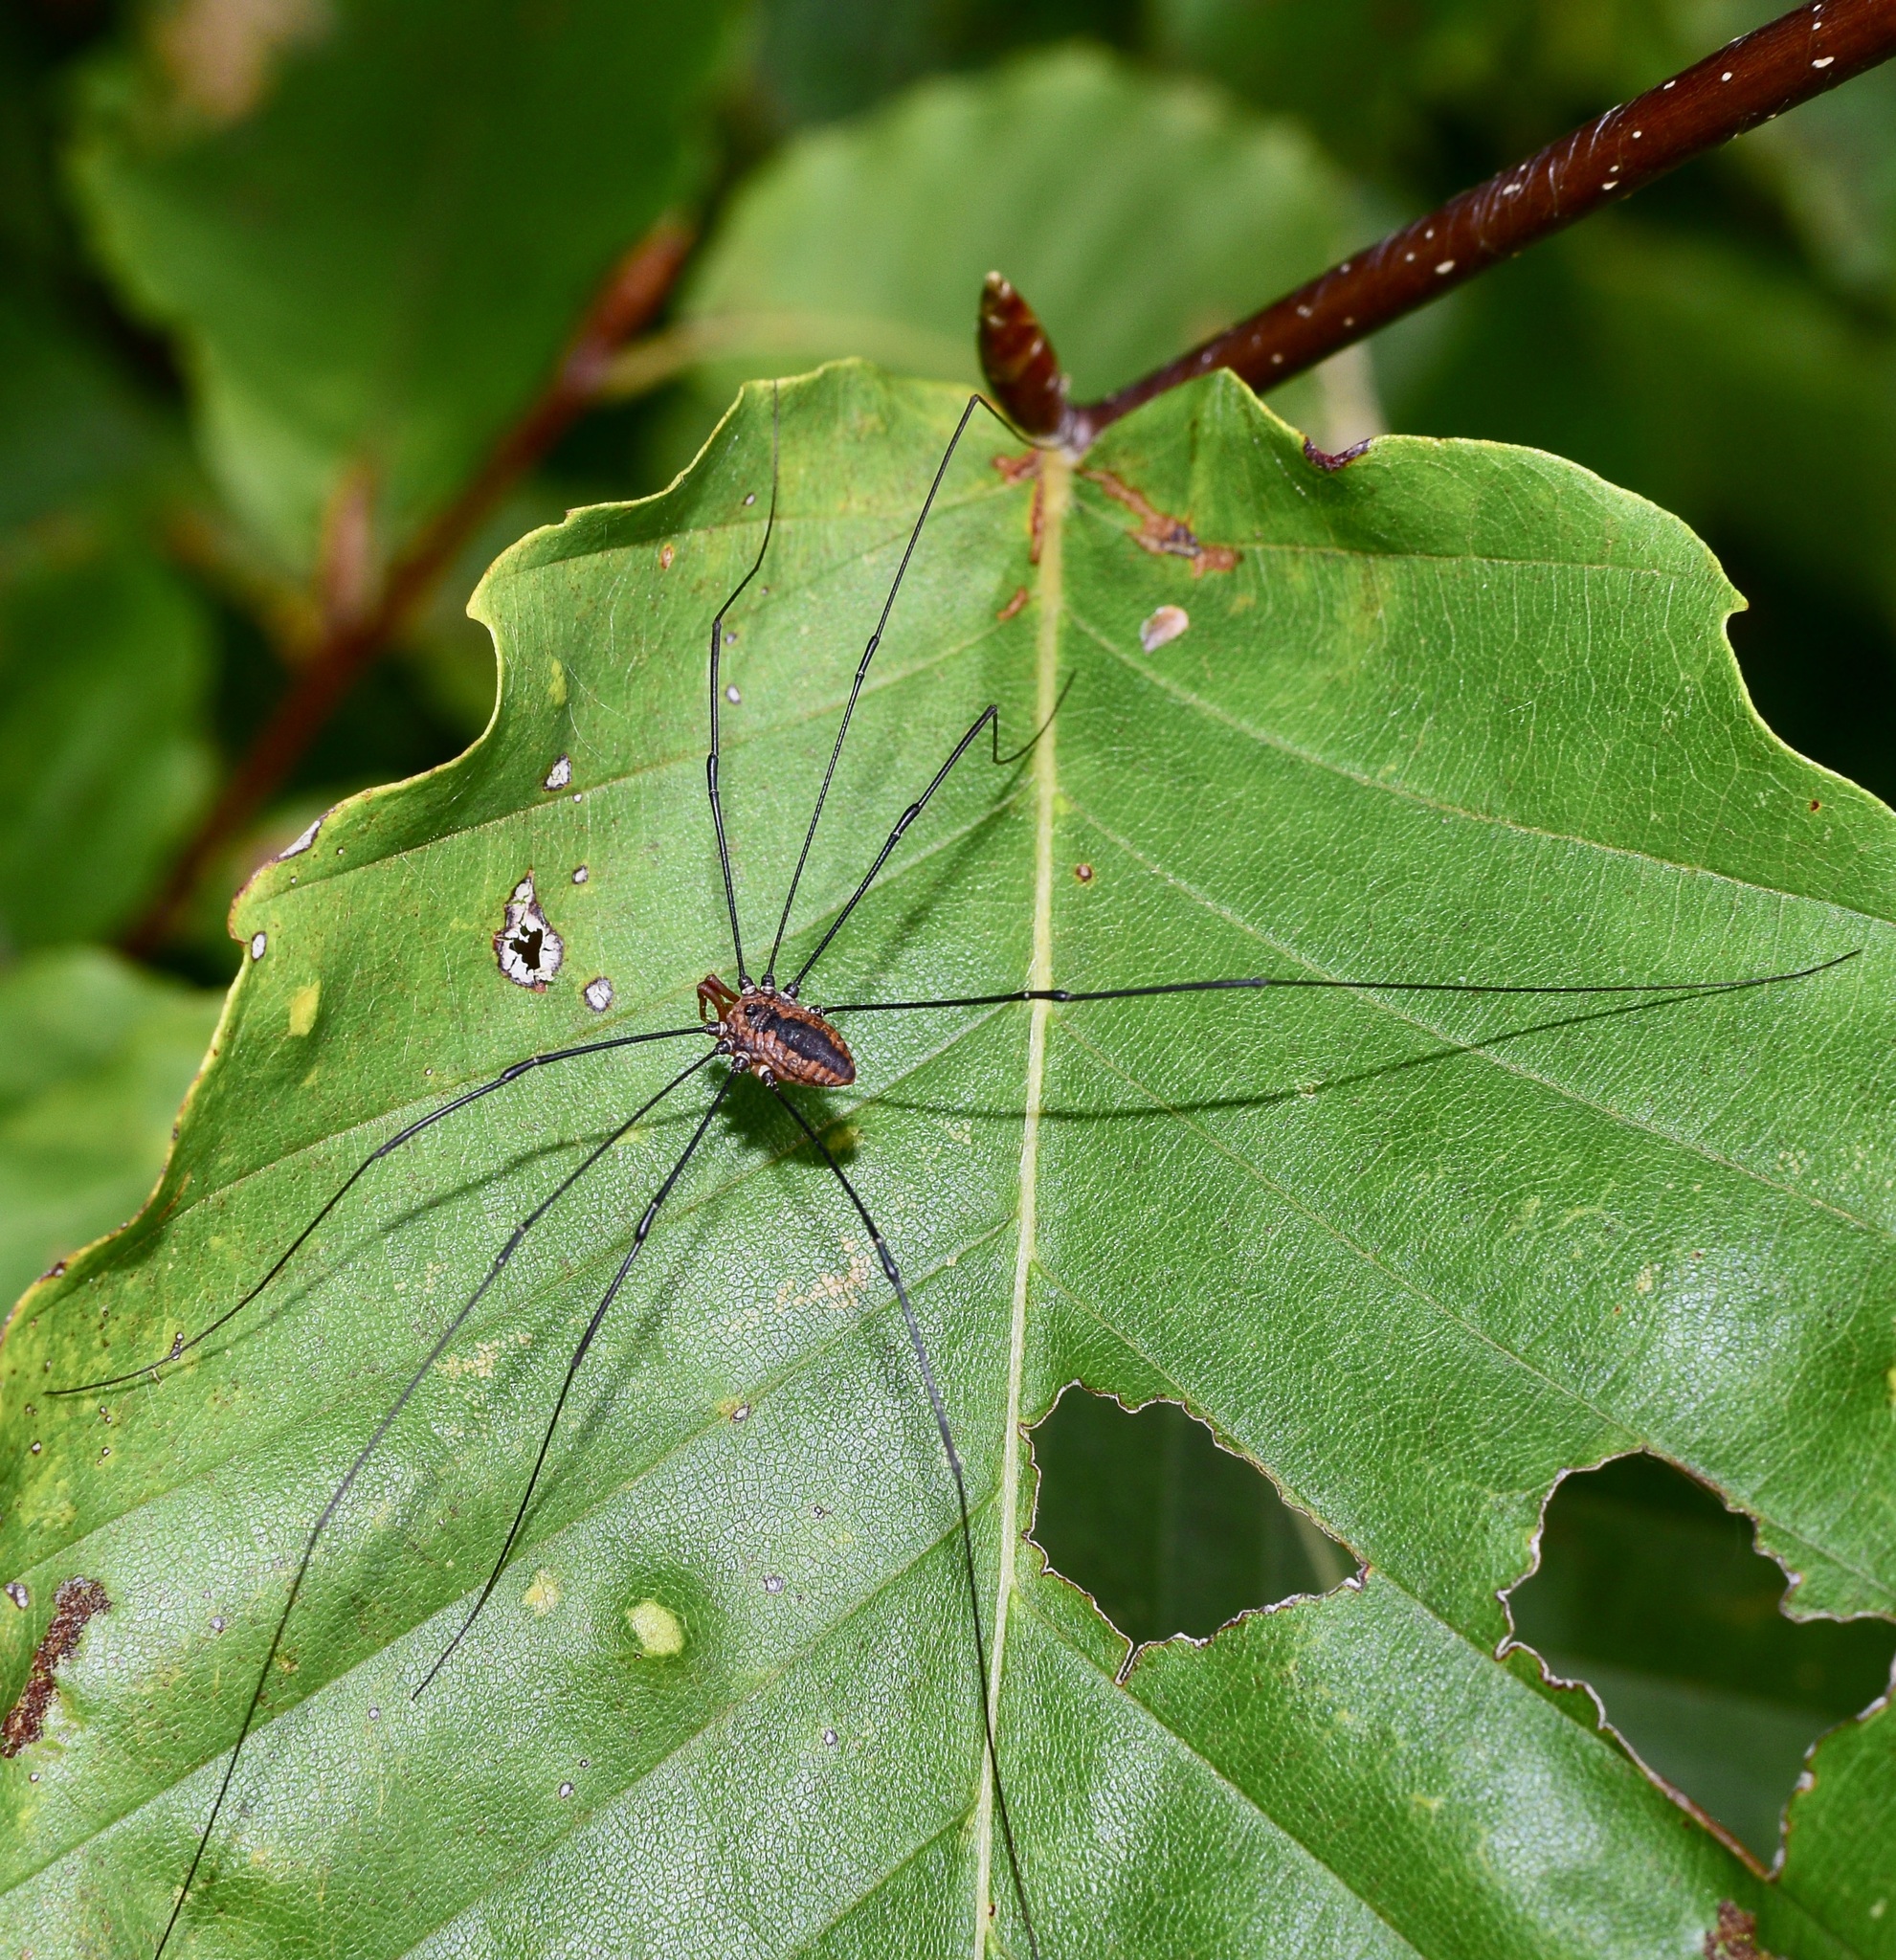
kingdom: Animalia
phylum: Arthropoda
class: Arachnida
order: Opiliones
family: Sclerosomatidae
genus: Leiobunum
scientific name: Leiobunum vittatum
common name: Eastern harvestman
